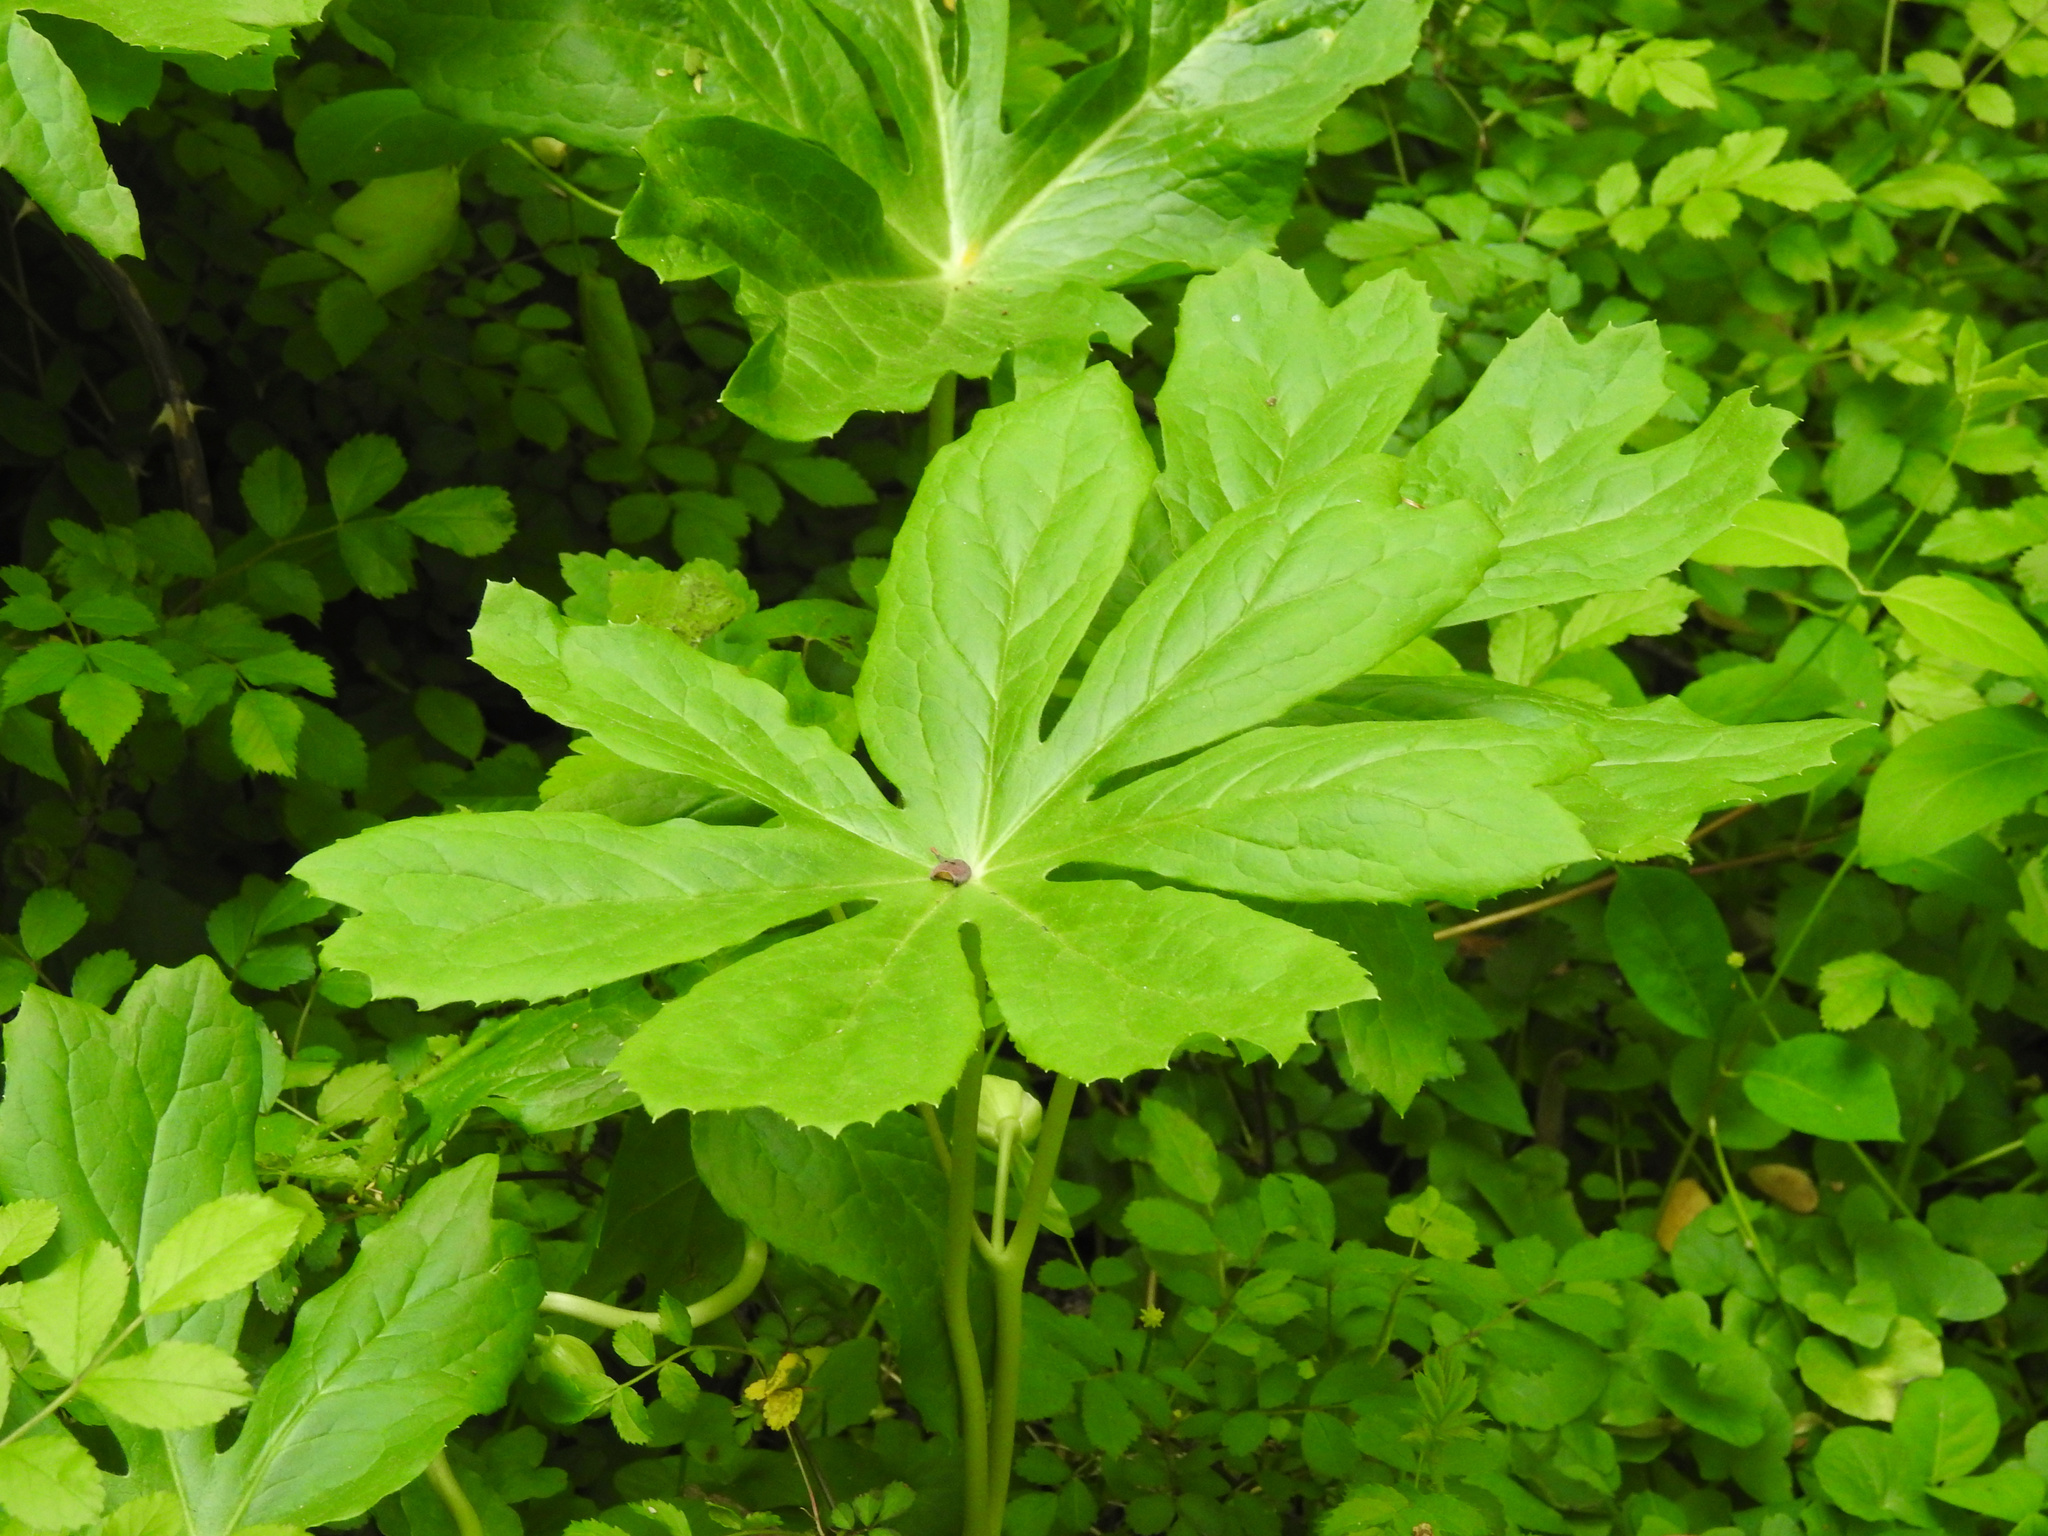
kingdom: Plantae
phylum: Tracheophyta
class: Magnoliopsida
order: Ranunculales
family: Berberidaceae
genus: Podophyllum
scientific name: Podophyllum peltatum
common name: Wild mandrake
